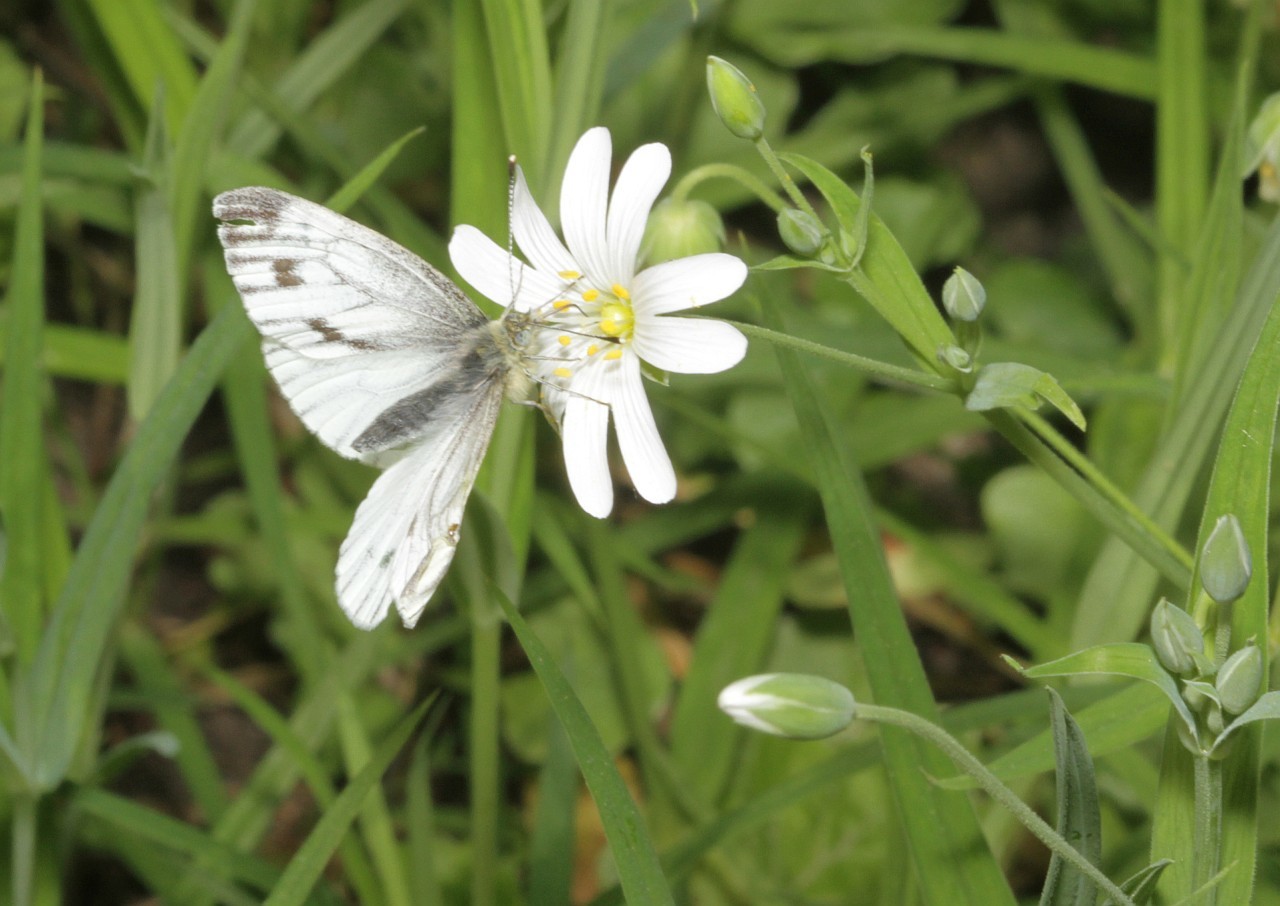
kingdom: Animalia
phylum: Arthropoda
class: Insecta
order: Lepidoptera
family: Pieridae
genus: Pieris
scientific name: Pieris napi
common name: Green-veined white
